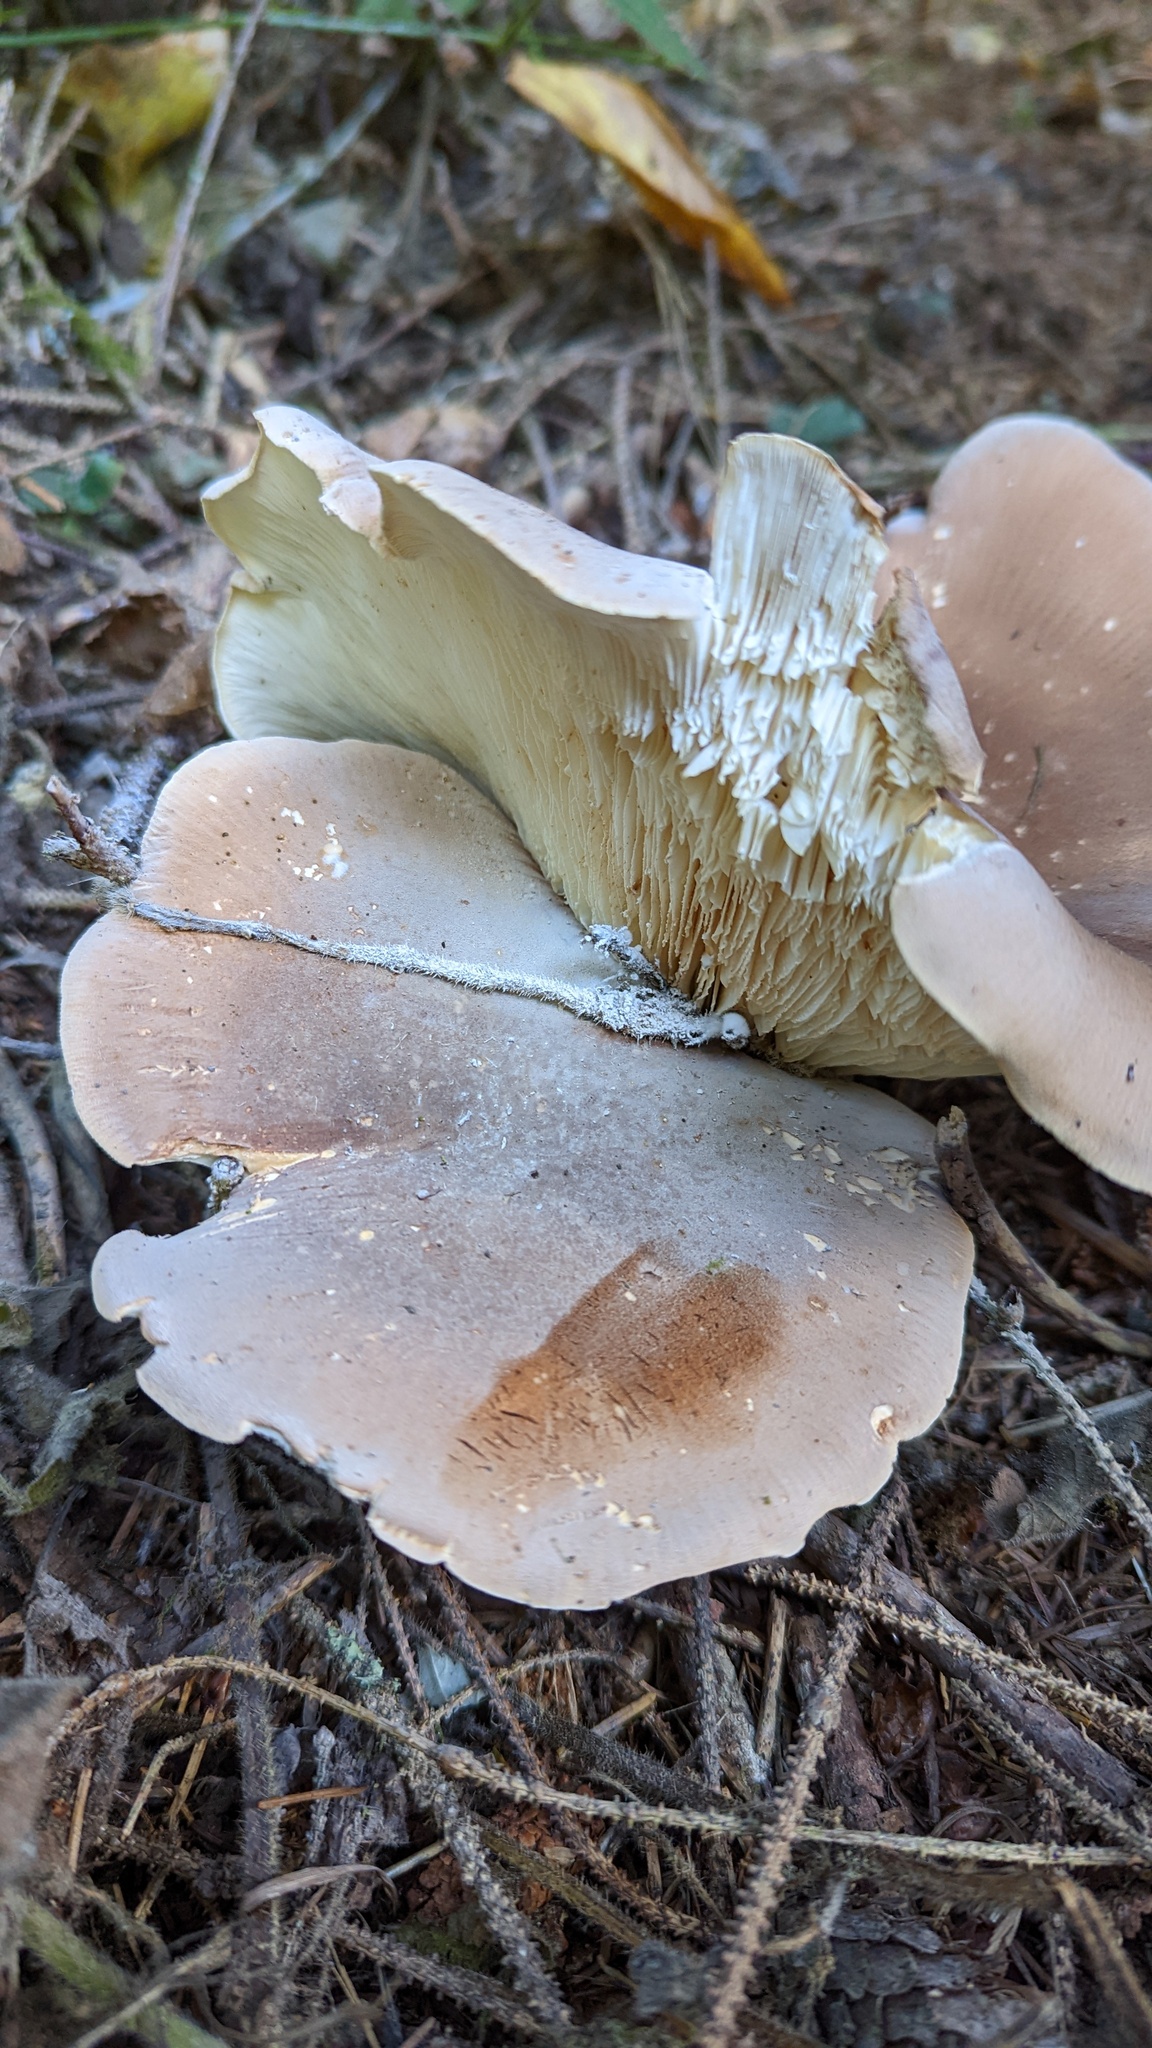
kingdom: Fungi
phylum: Basidiomycota
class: Agaricomycetes
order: Agaricales
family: Tricholomataceae
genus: Leucopaxillus
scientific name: Leucopaxillus gentianeus
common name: Bitter funnel
